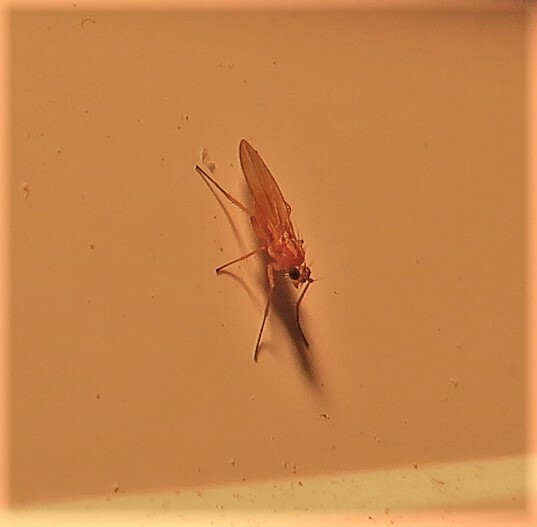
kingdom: Animalia
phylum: Arthropoda
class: Insecta
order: Diptera
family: Lonchopteridae
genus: Lonchoptera
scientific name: Lonchoptera bifurcata
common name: Spear-winged fly
